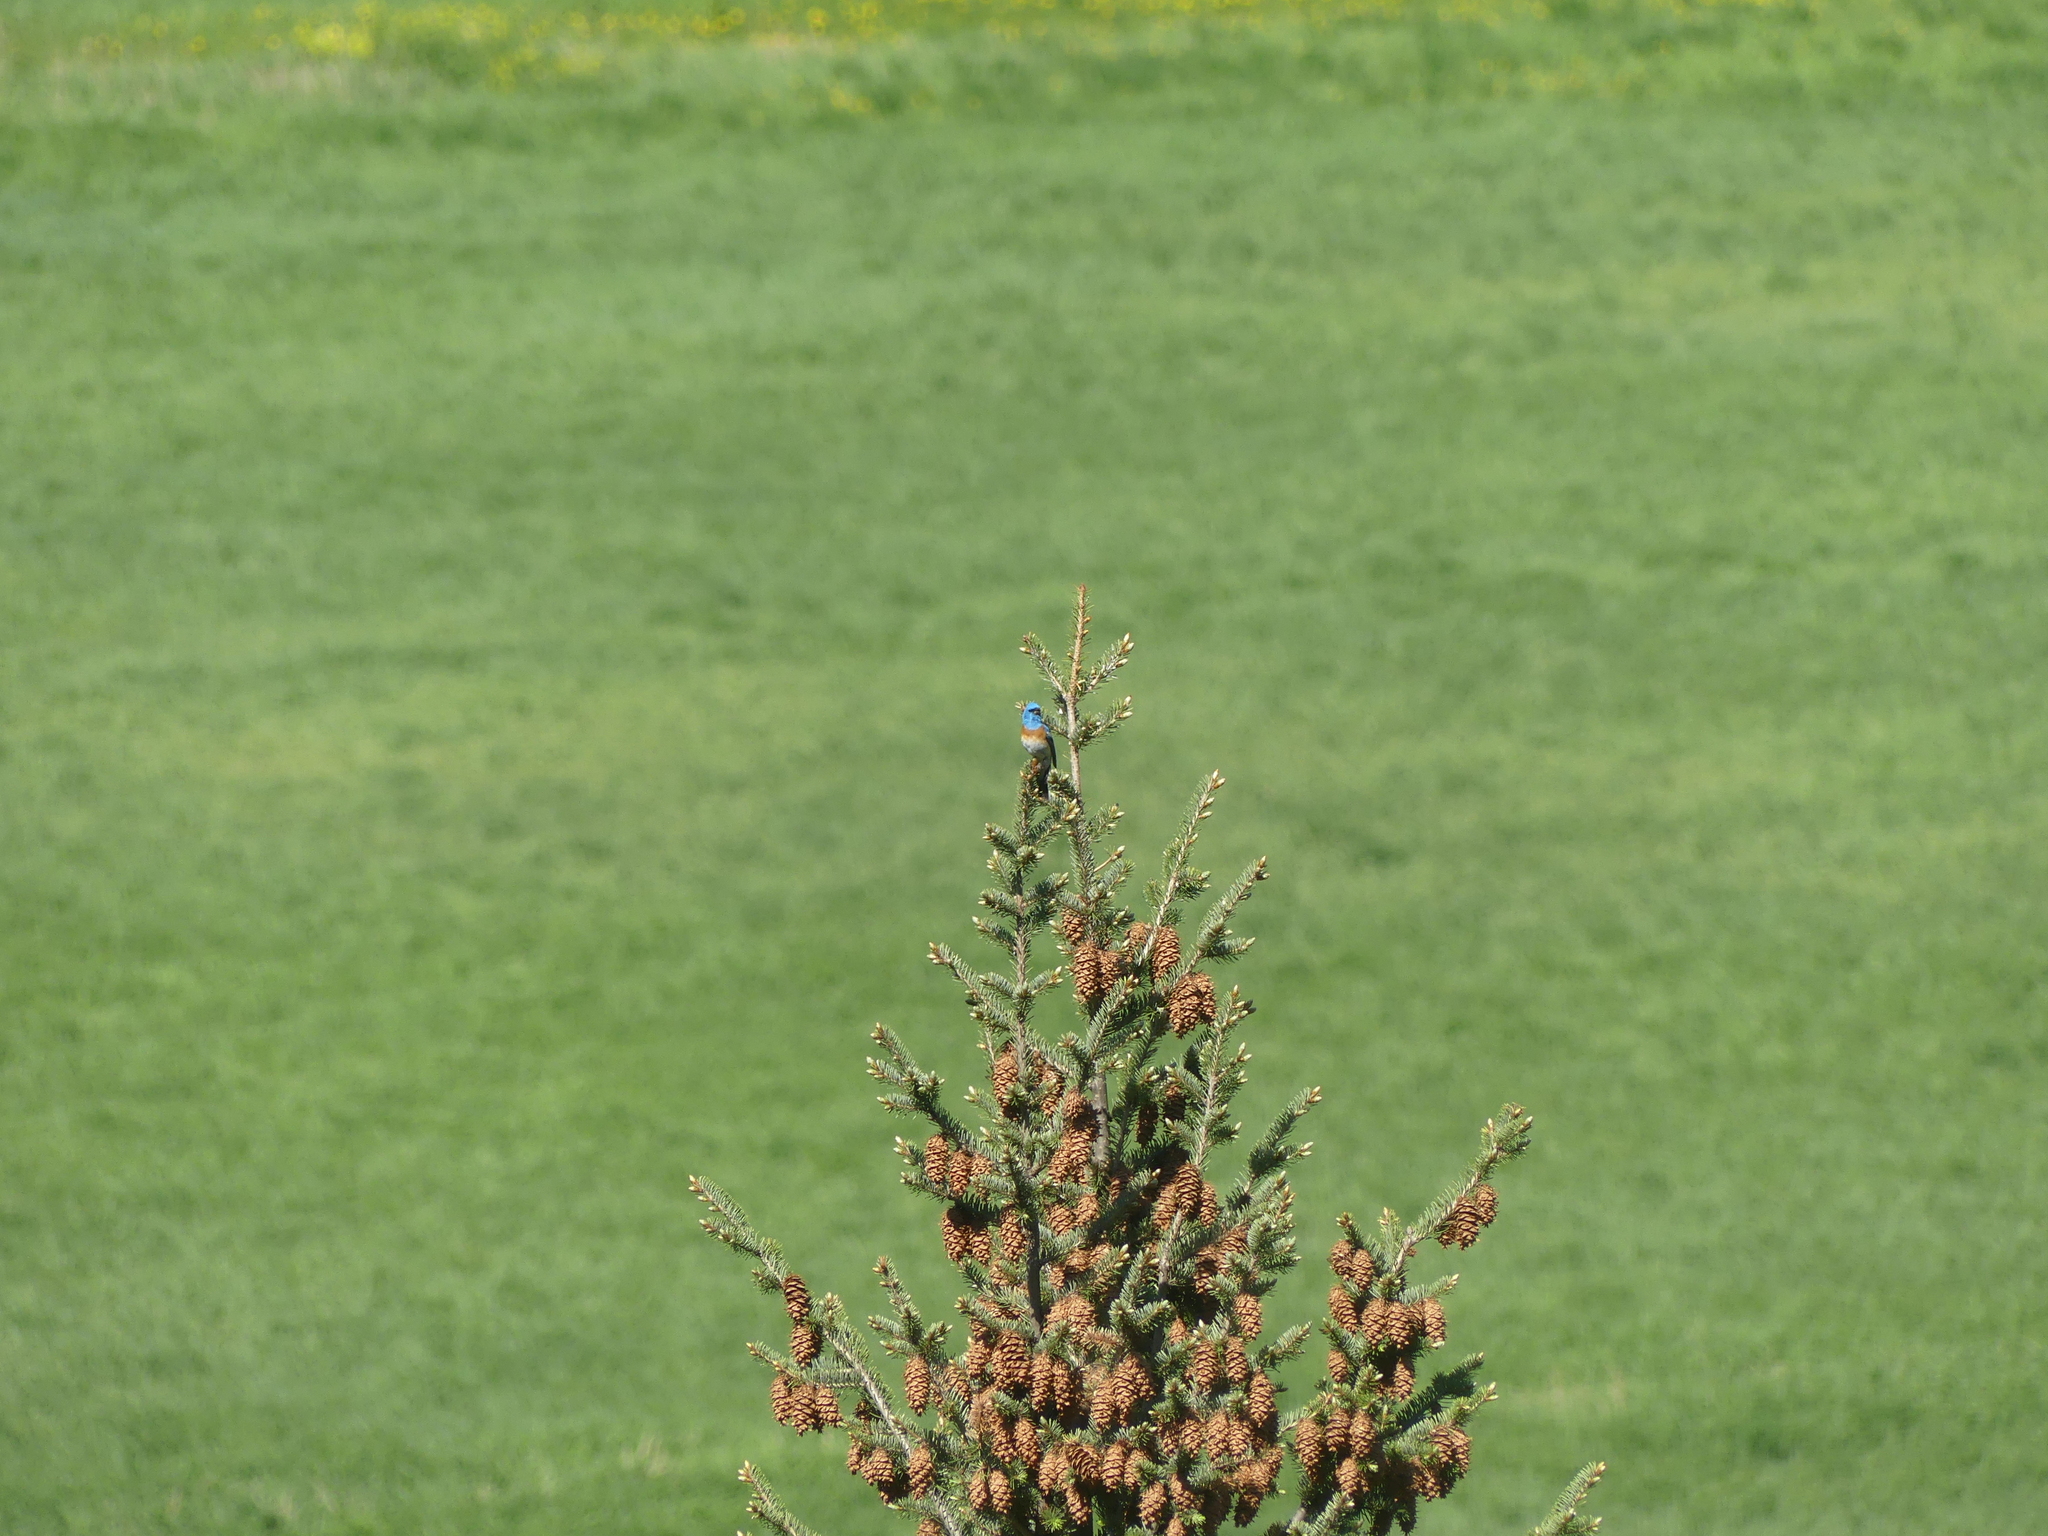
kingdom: Animalia
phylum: Chordata
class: Aves
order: Passeriformes
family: Cardinalidae
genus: Passerina
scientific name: Passerina amoena
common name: Lazuli bunting
